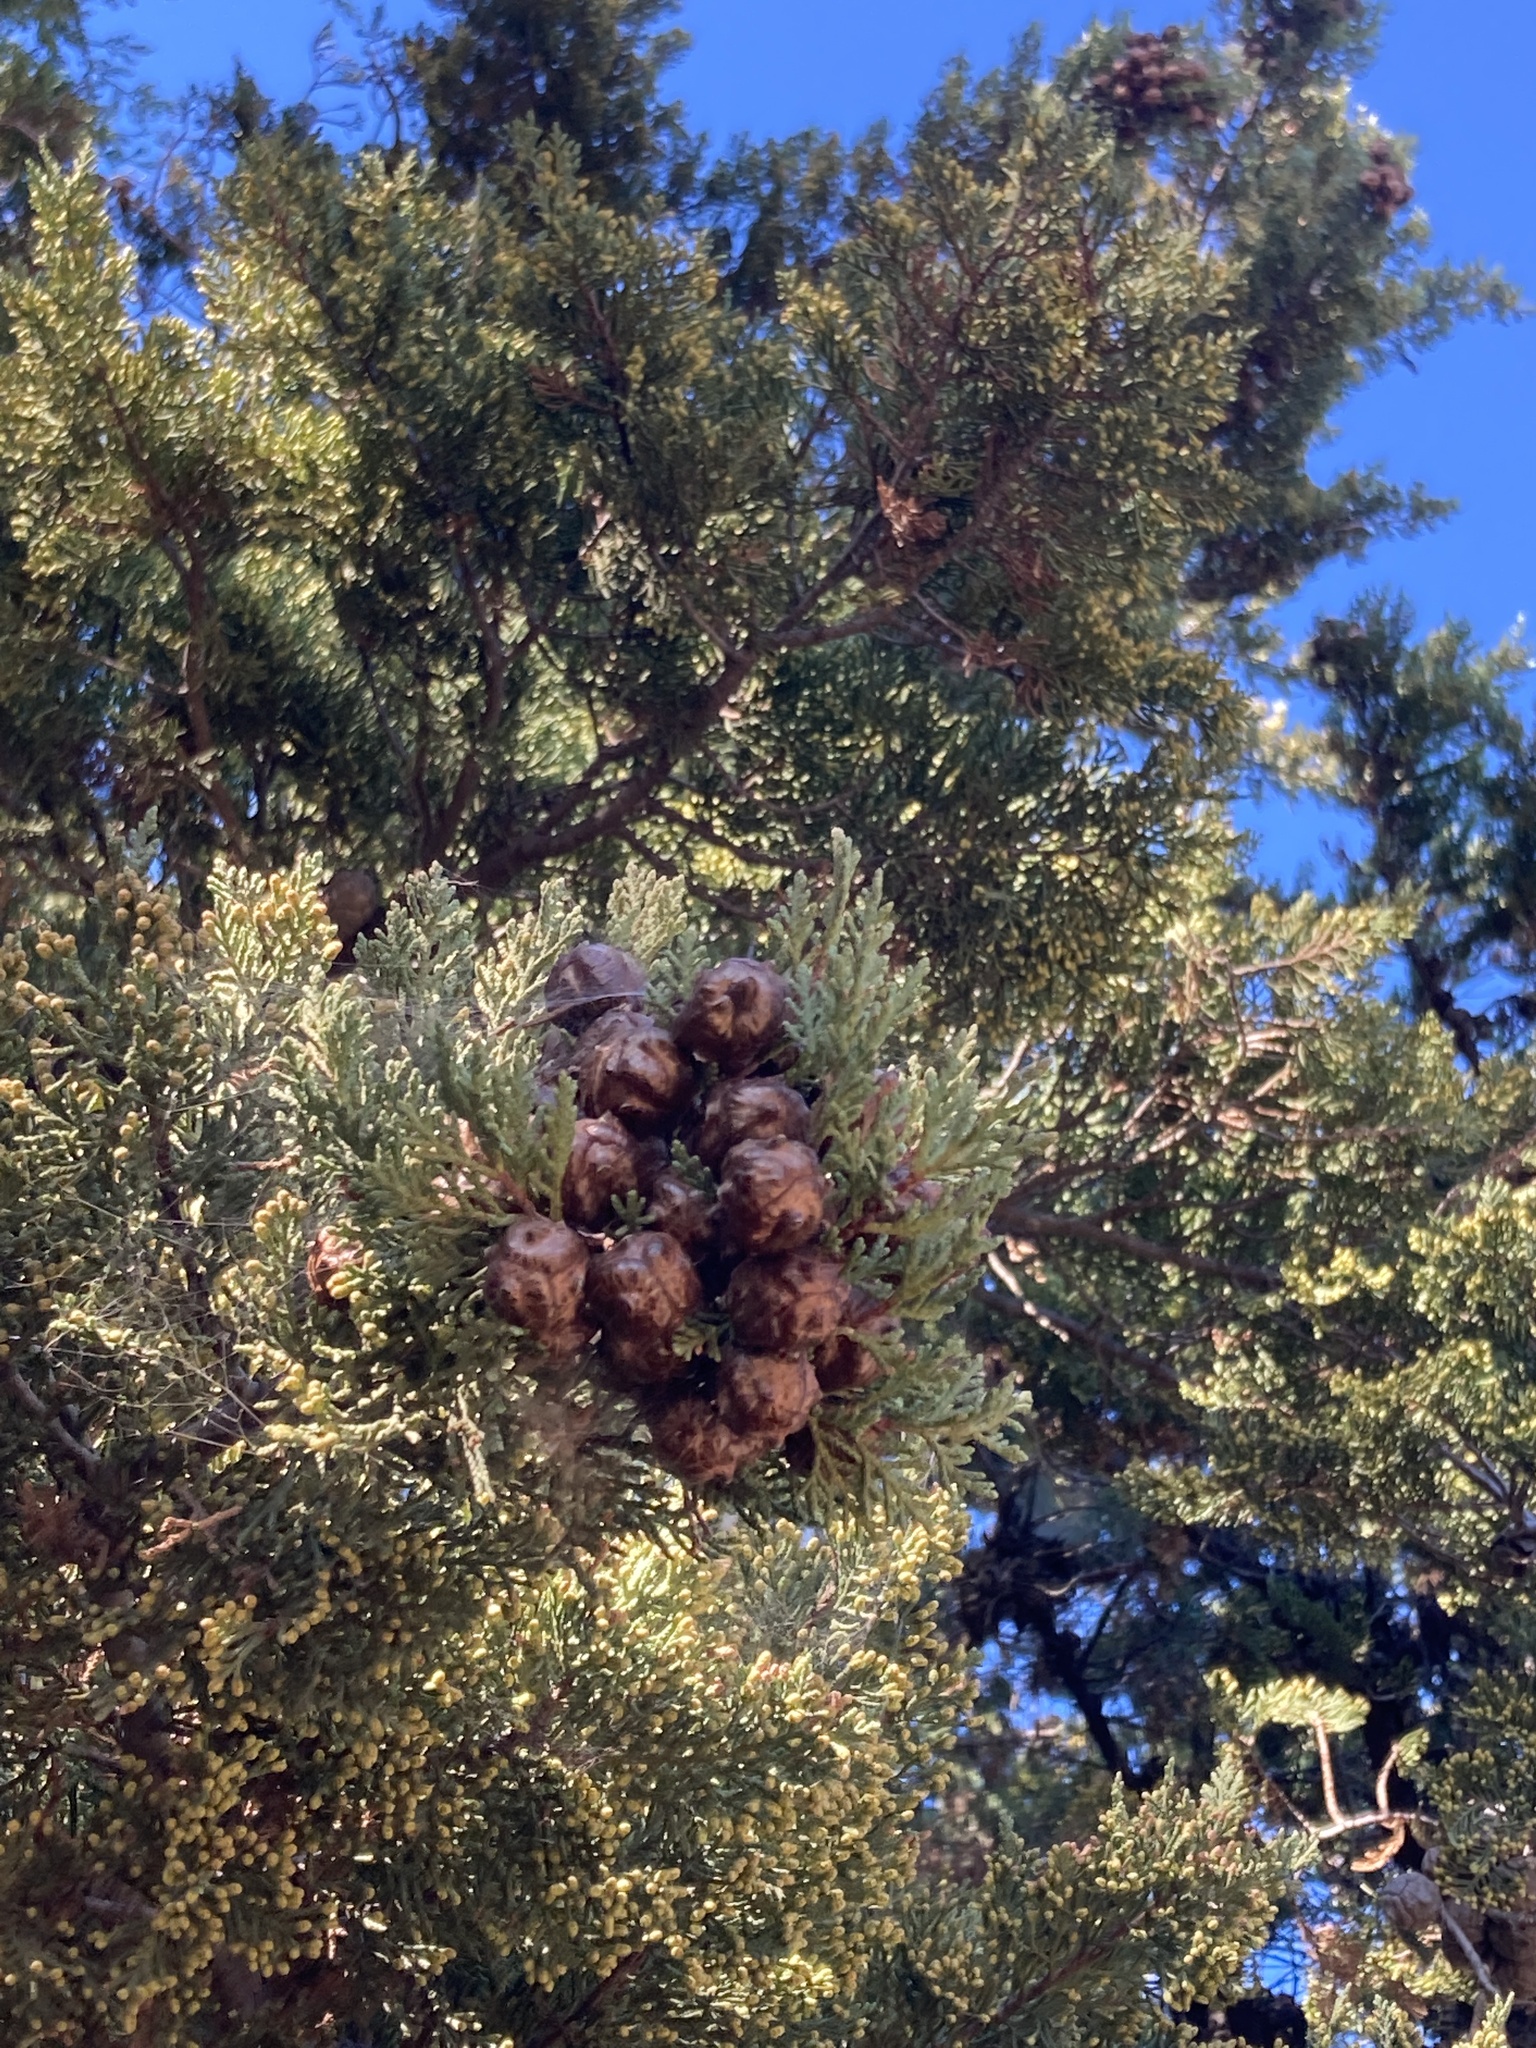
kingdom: Plantae
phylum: Tracheophyta
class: Pinopsida
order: Pinales
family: Cupressaceae
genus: Cupressus
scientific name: Cupressus sargentii
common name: Sargent cypress
